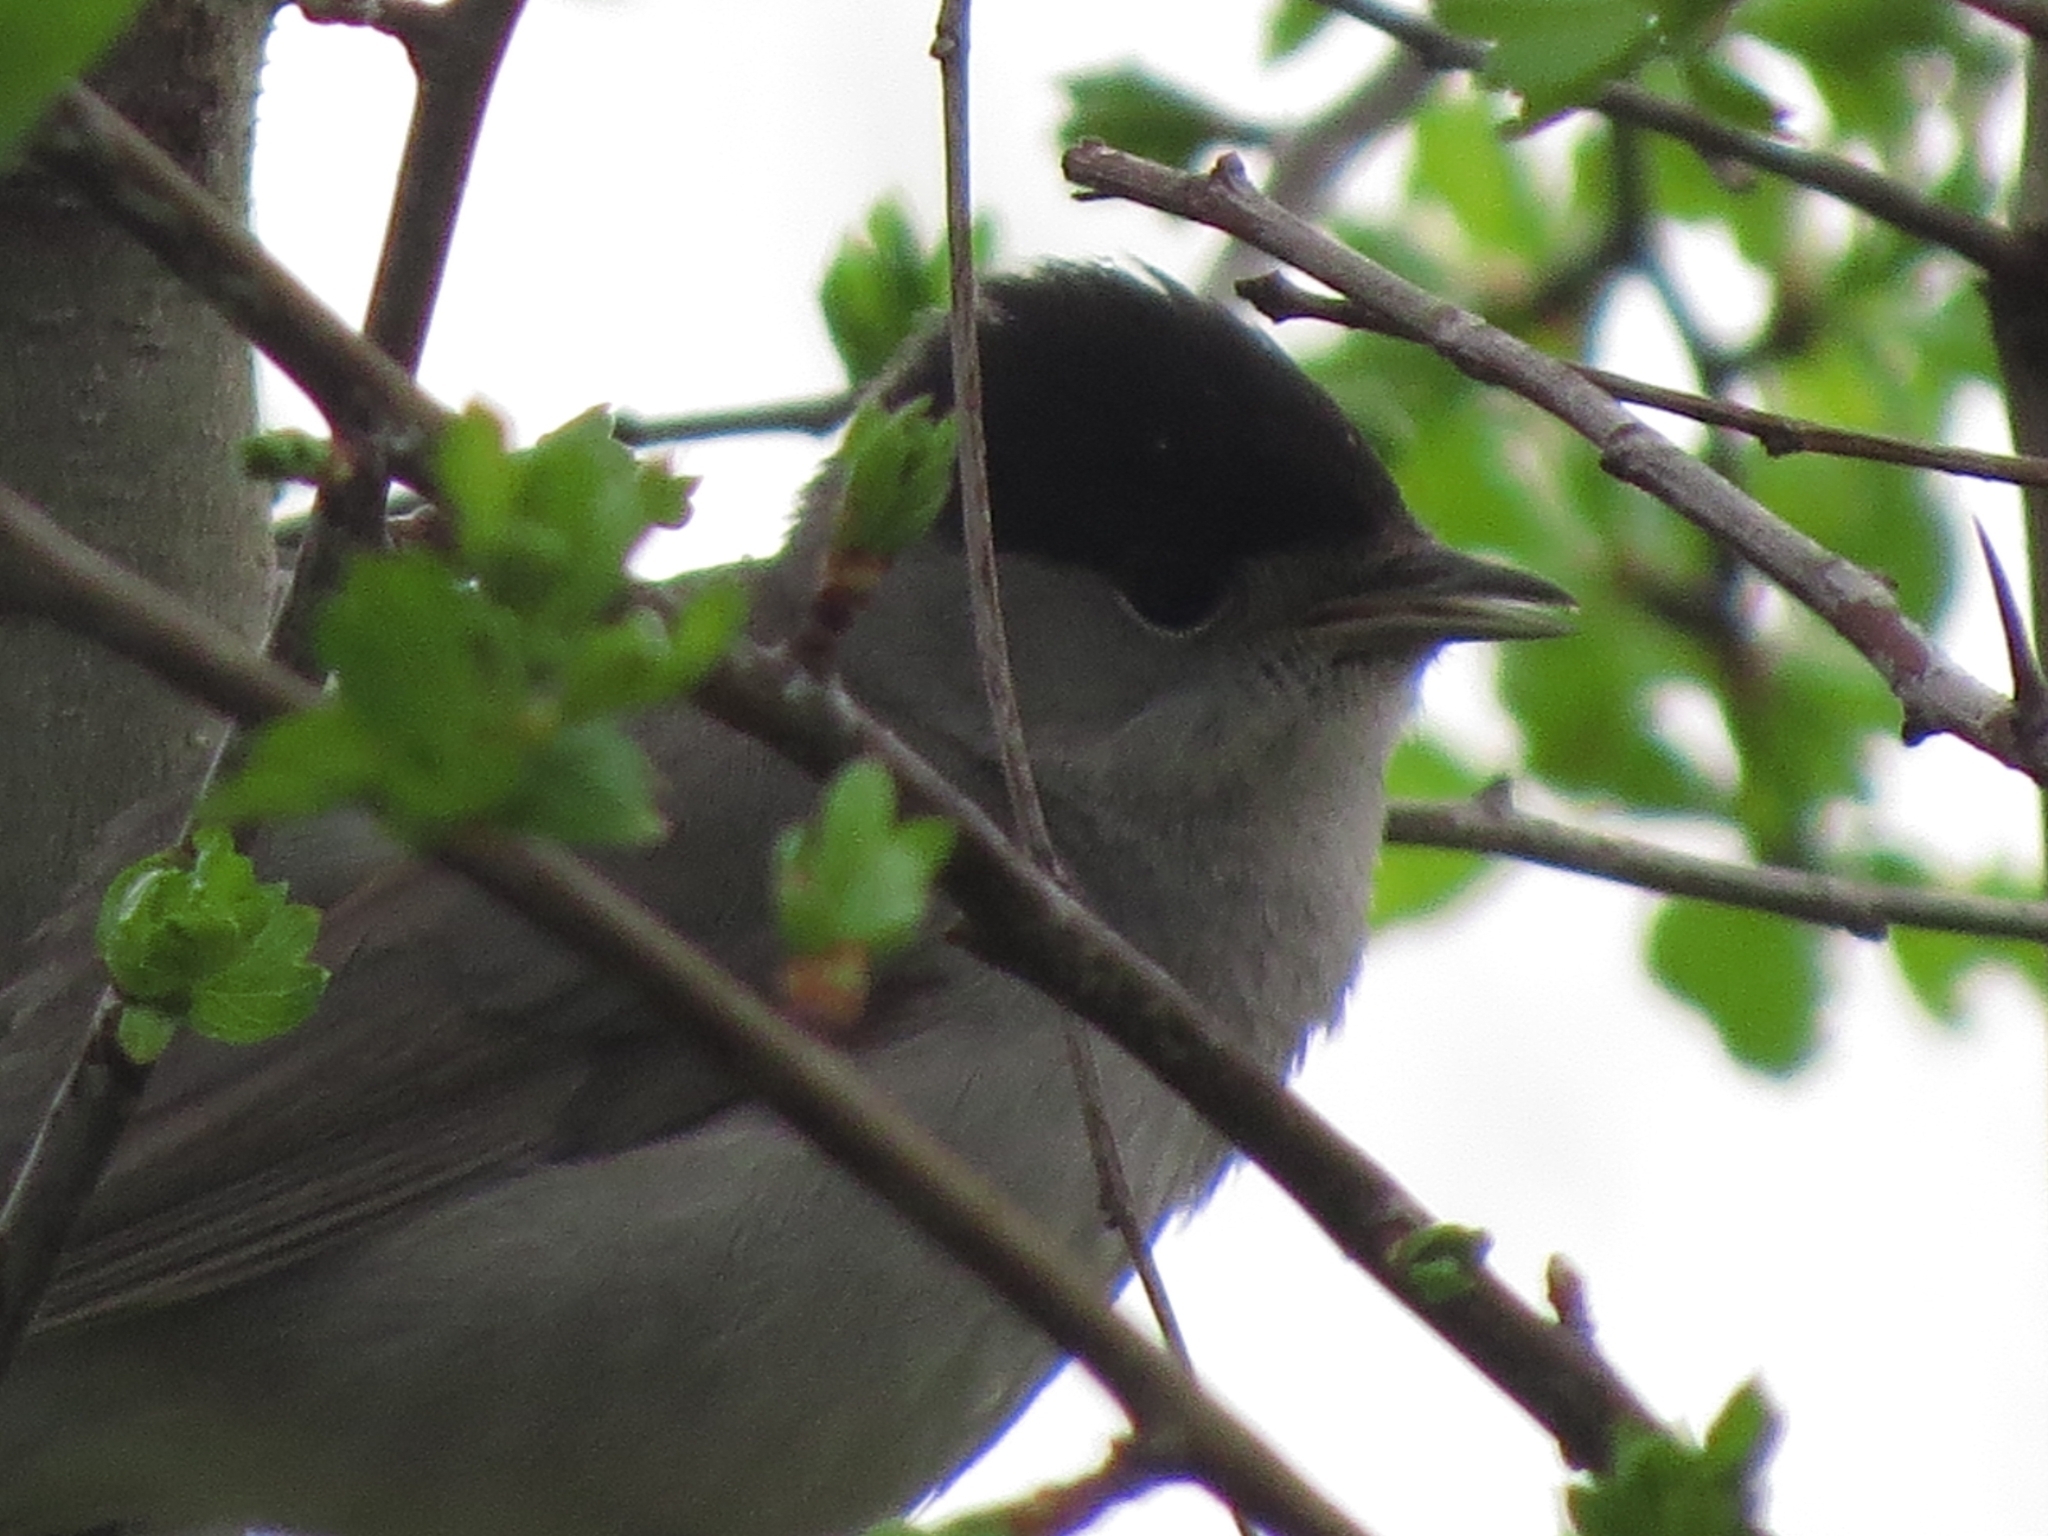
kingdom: Animalia
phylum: Chordata
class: Aves
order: Passeriformes
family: Sylviidae
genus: Sylvia
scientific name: Sylvia atricapilla
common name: Eurasian blackcap
